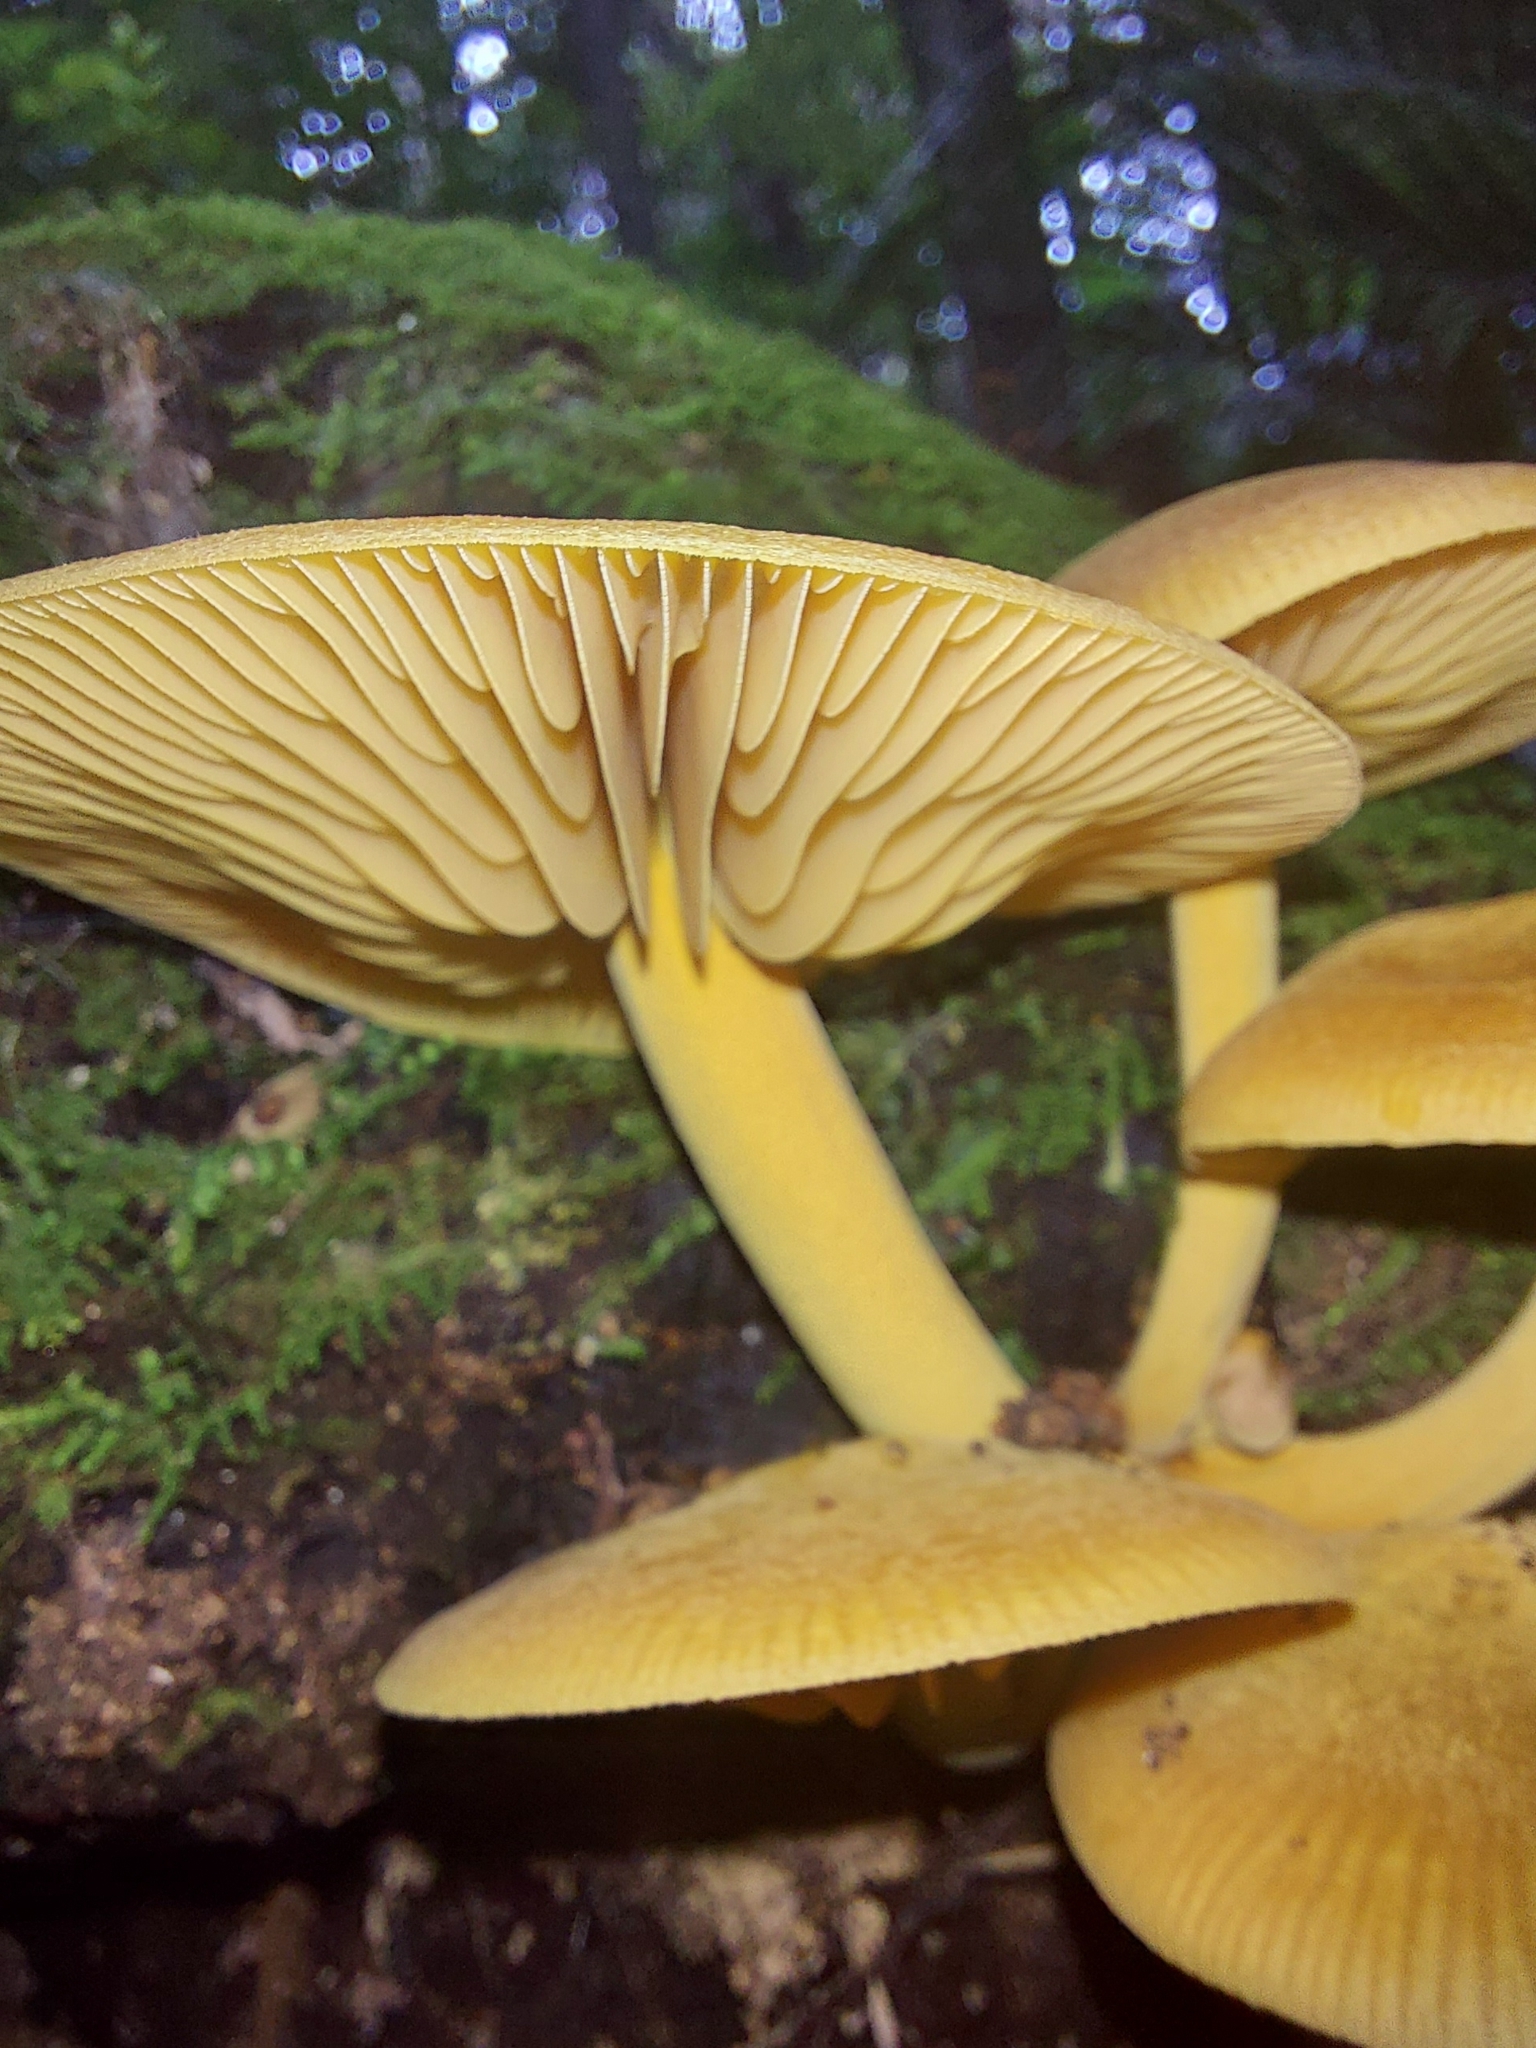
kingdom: Fungi
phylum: Basidiomycota
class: Agaricomycetes
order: Agaricales
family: Mycenaceae
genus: Heimiomyces
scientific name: Heimiomyces velutipes
